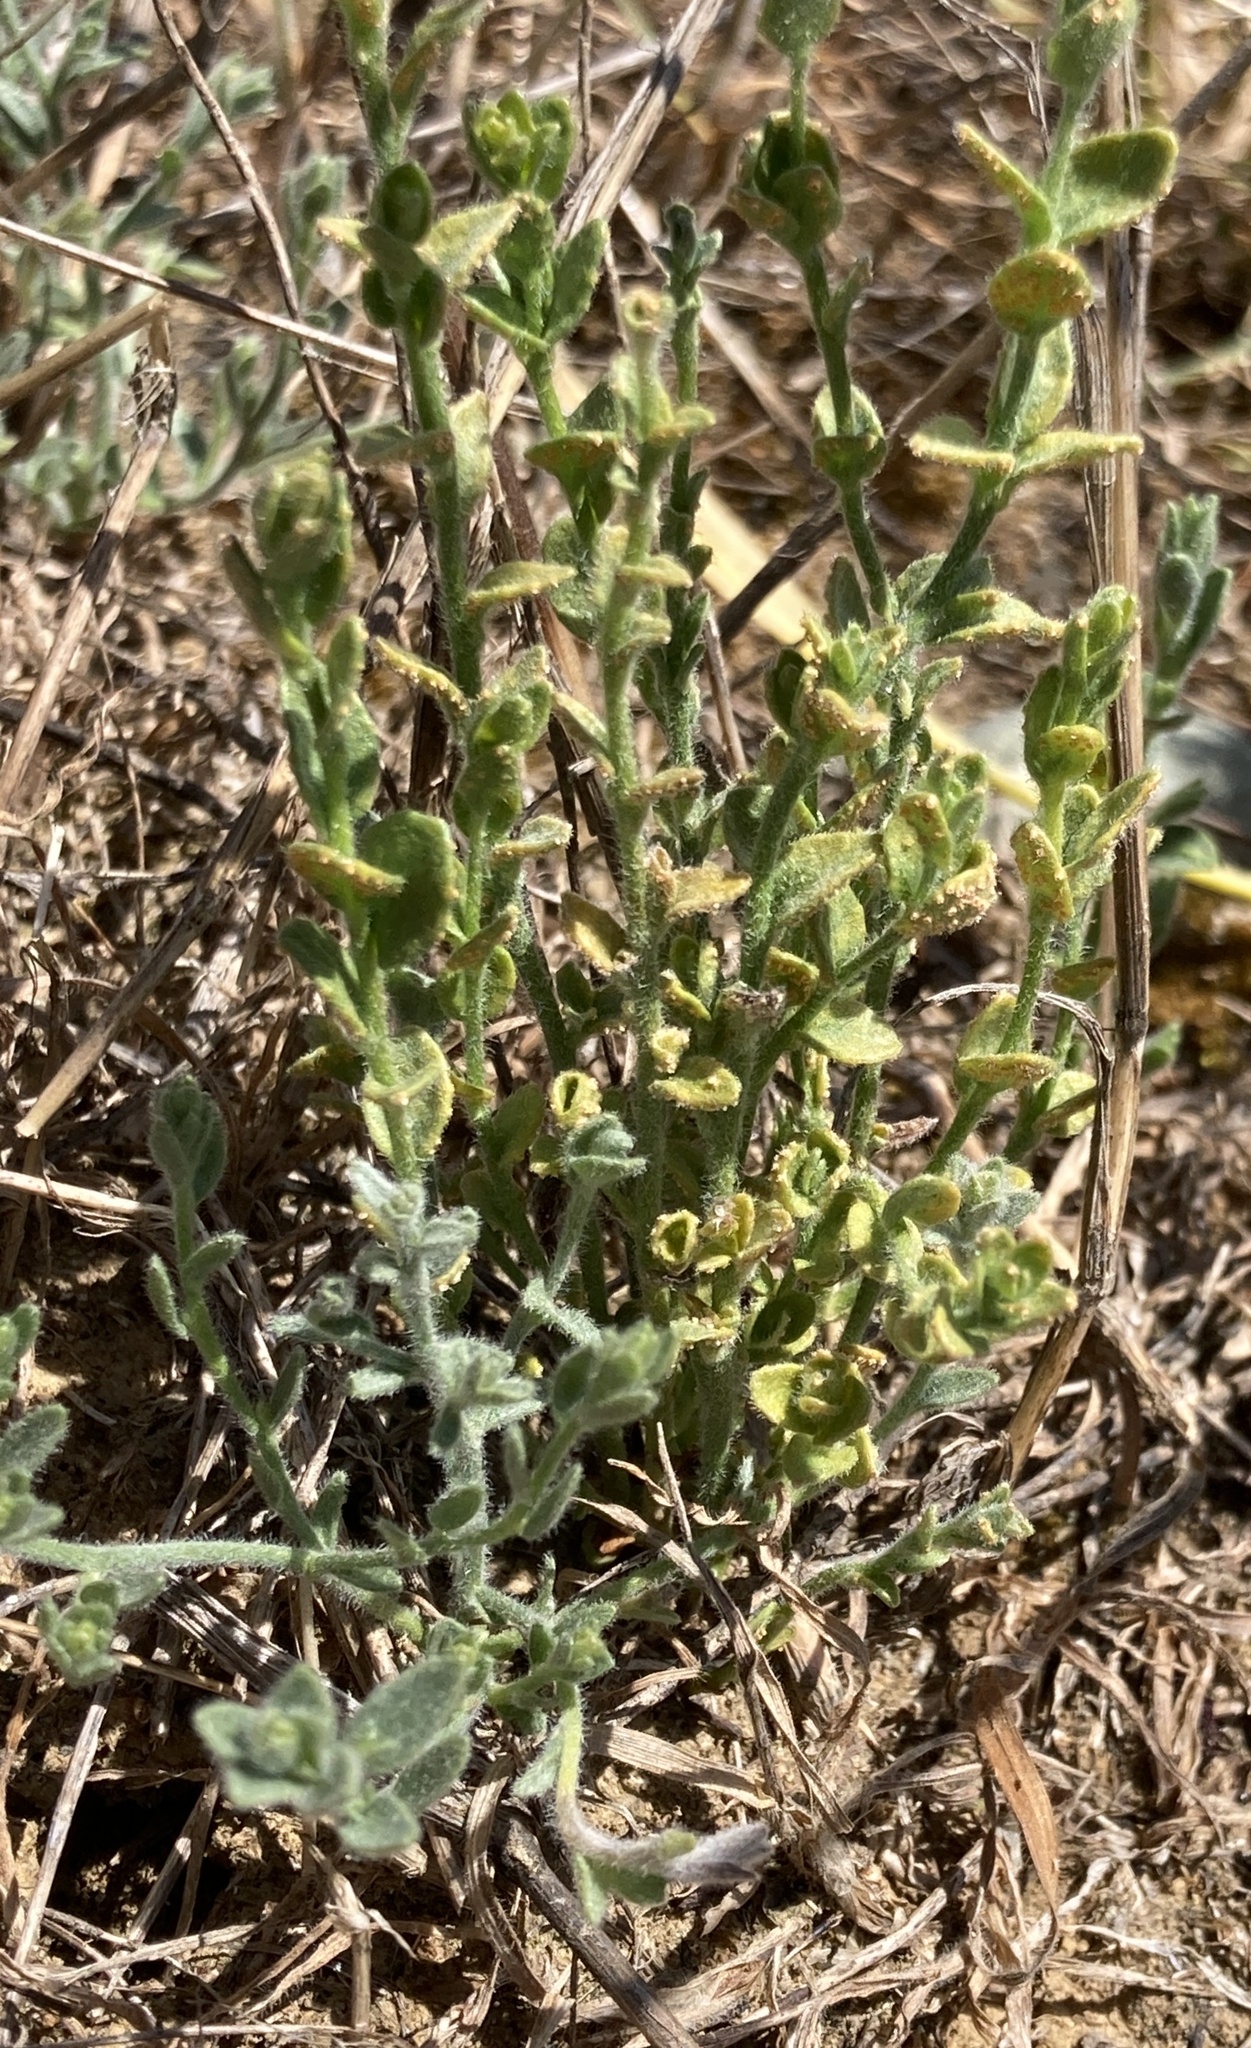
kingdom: Fungi
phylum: Basidiomycota
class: Pucciniomycetes
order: Pucciniales
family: Pucciniaceae
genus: Puccinia
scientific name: Puccinia cressae
